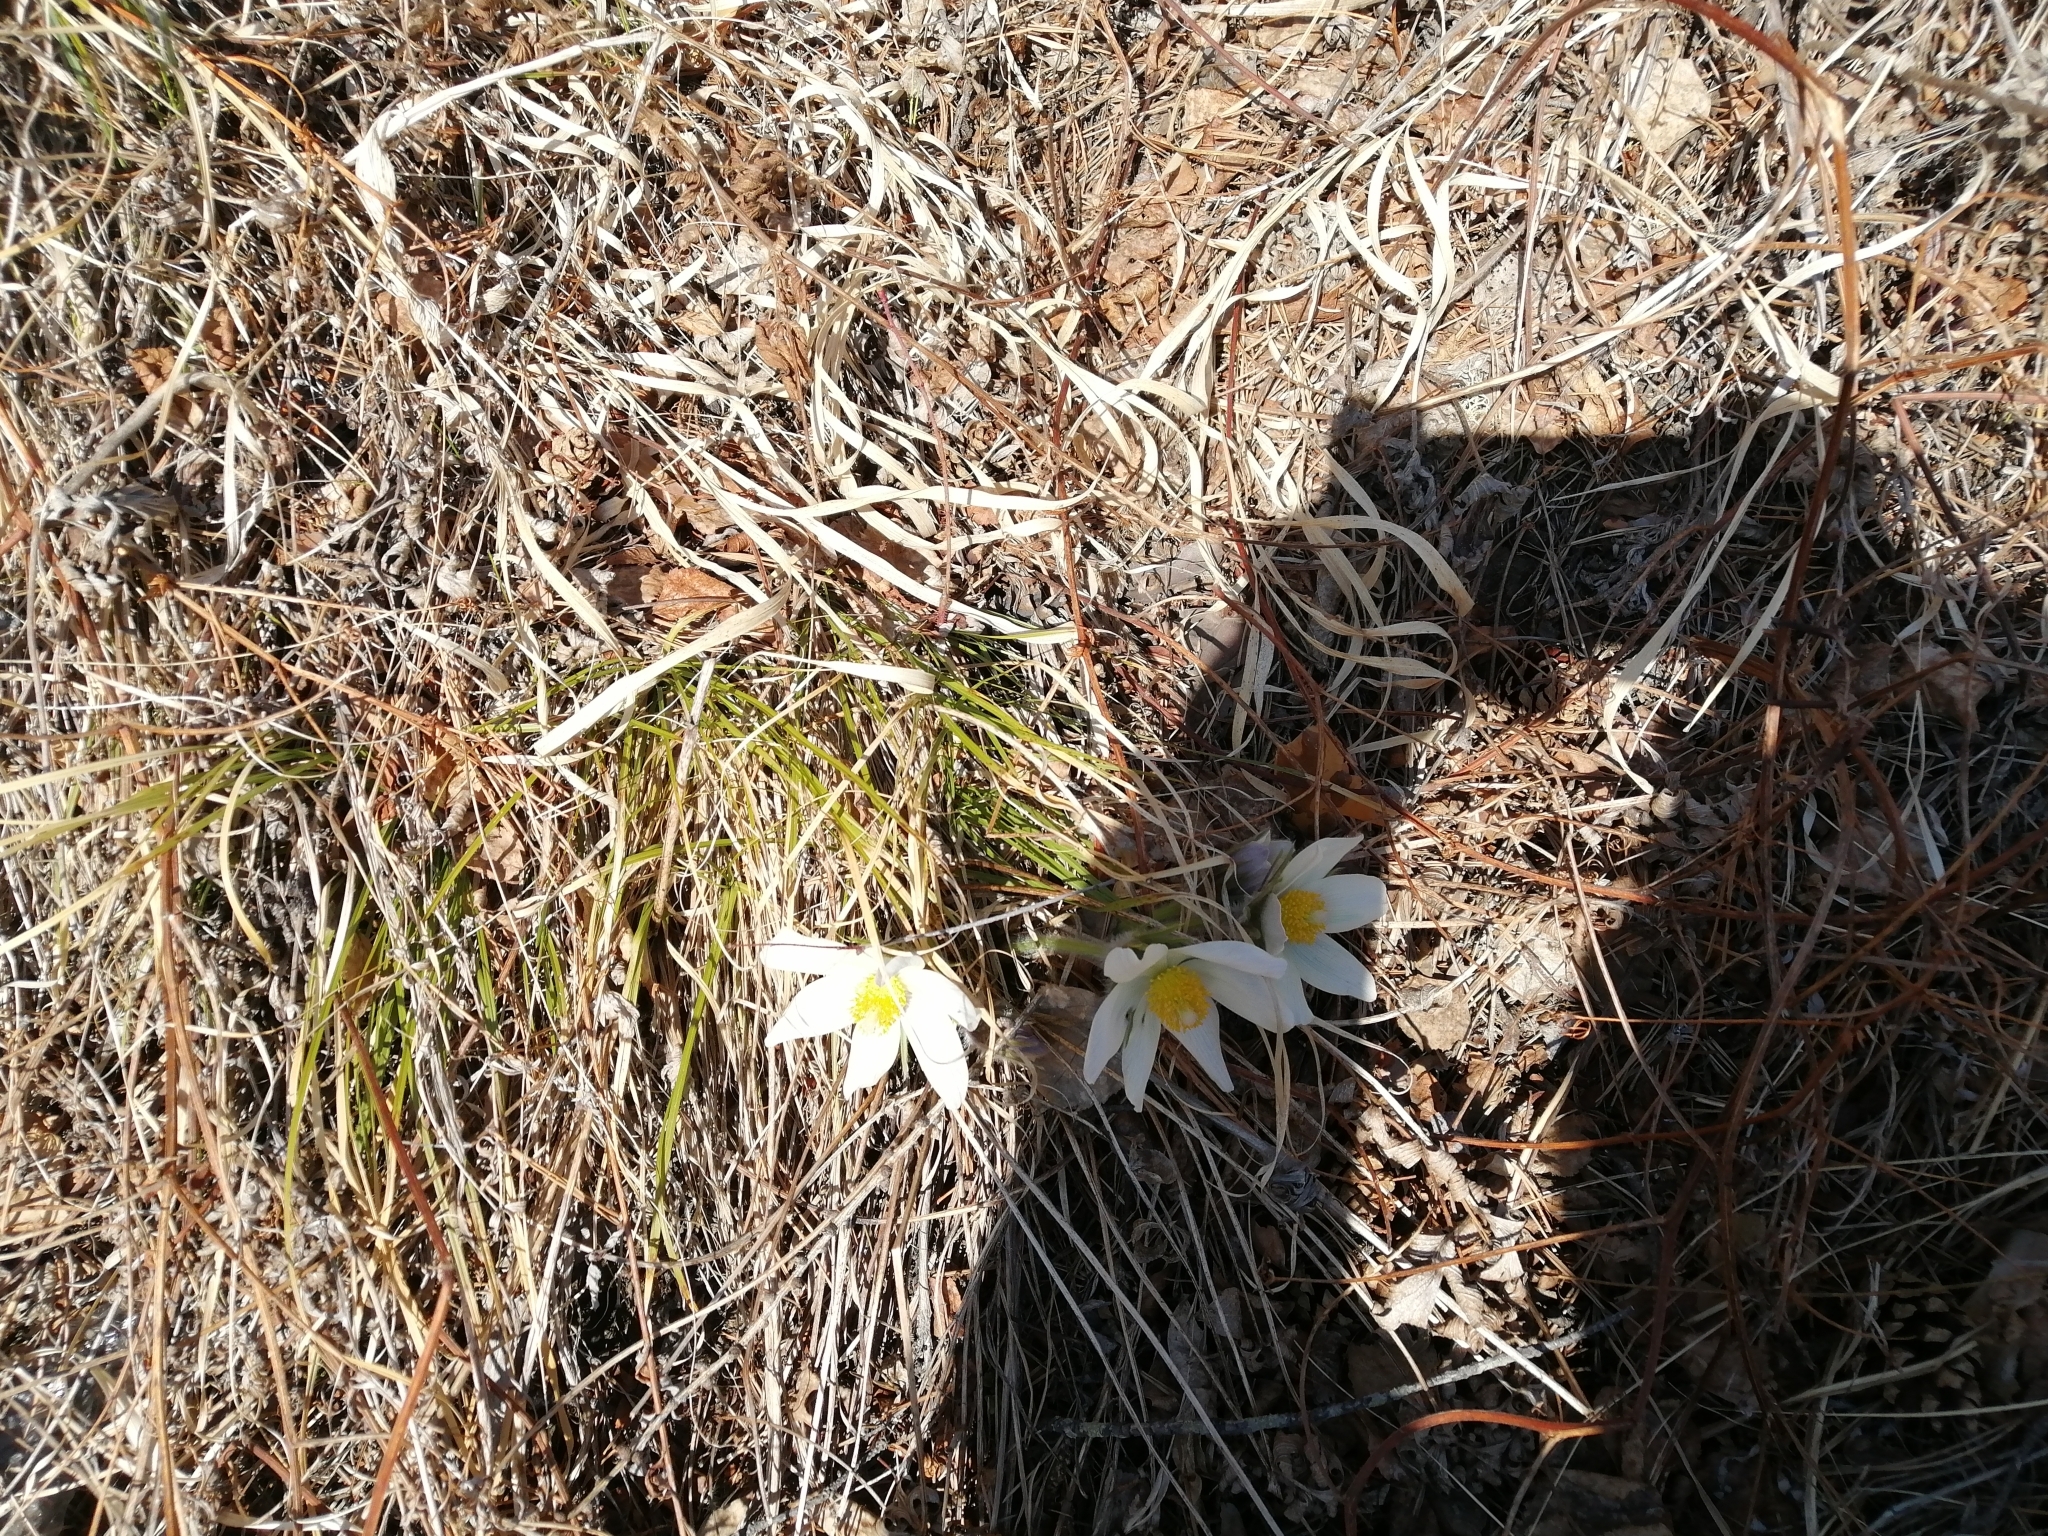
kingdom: Plantae
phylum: Tracheophyta
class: Magnoliopsida
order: Ranunculales
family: Ranunculaceae
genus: Pulsatilla
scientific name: Pulsatilla patens
